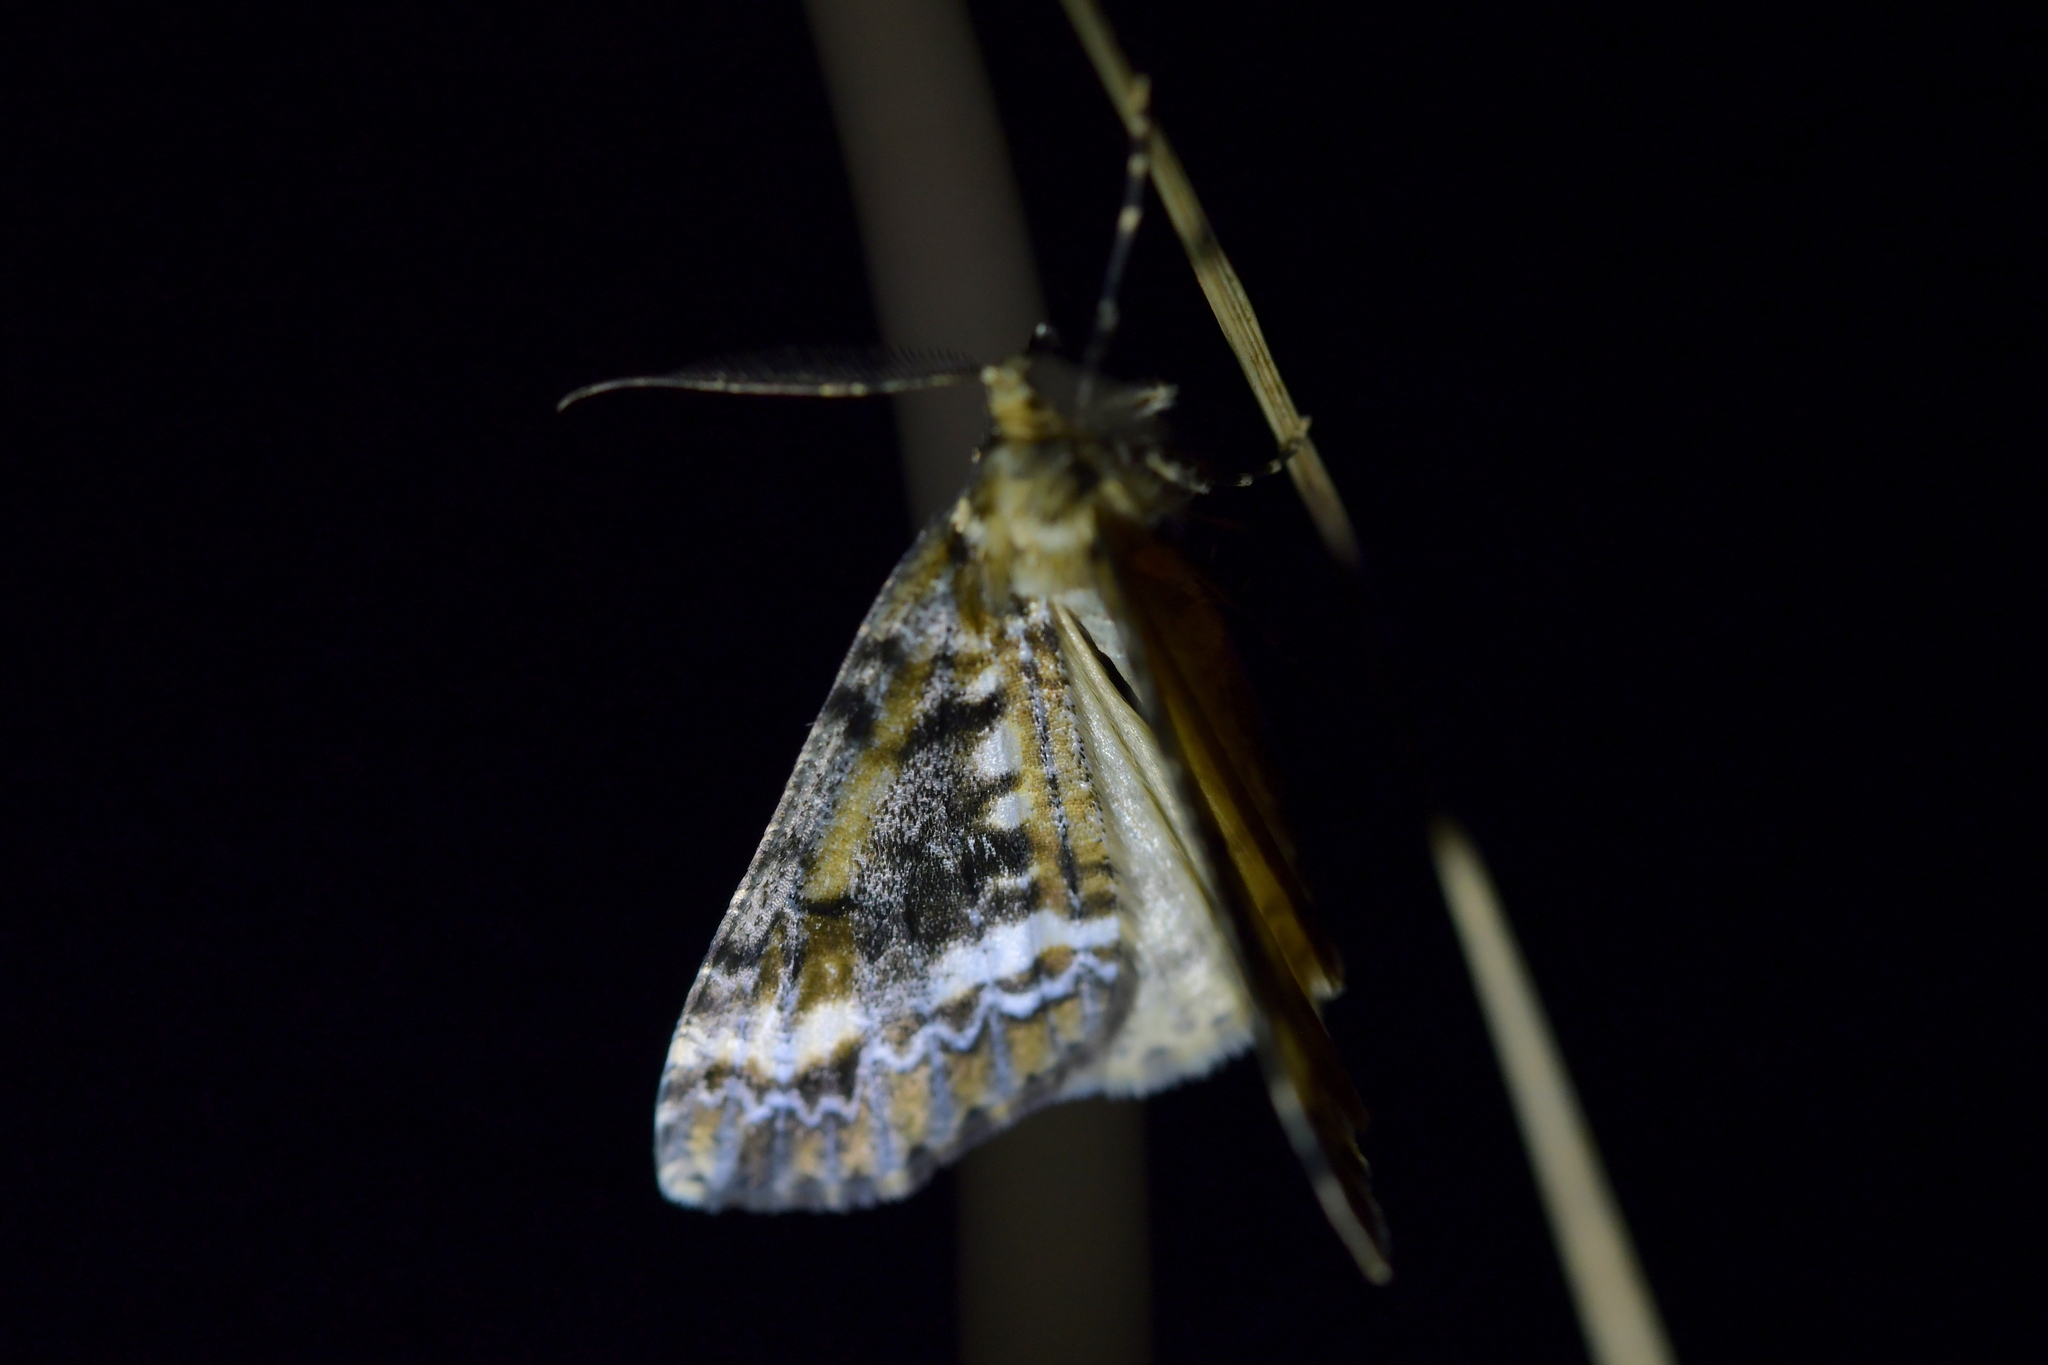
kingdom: Animalia
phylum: Arthropoda
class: Insecta
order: Lepidoptera
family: Geometridae
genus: Pseudocoremia
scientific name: Pseudocoremia leucelaea
